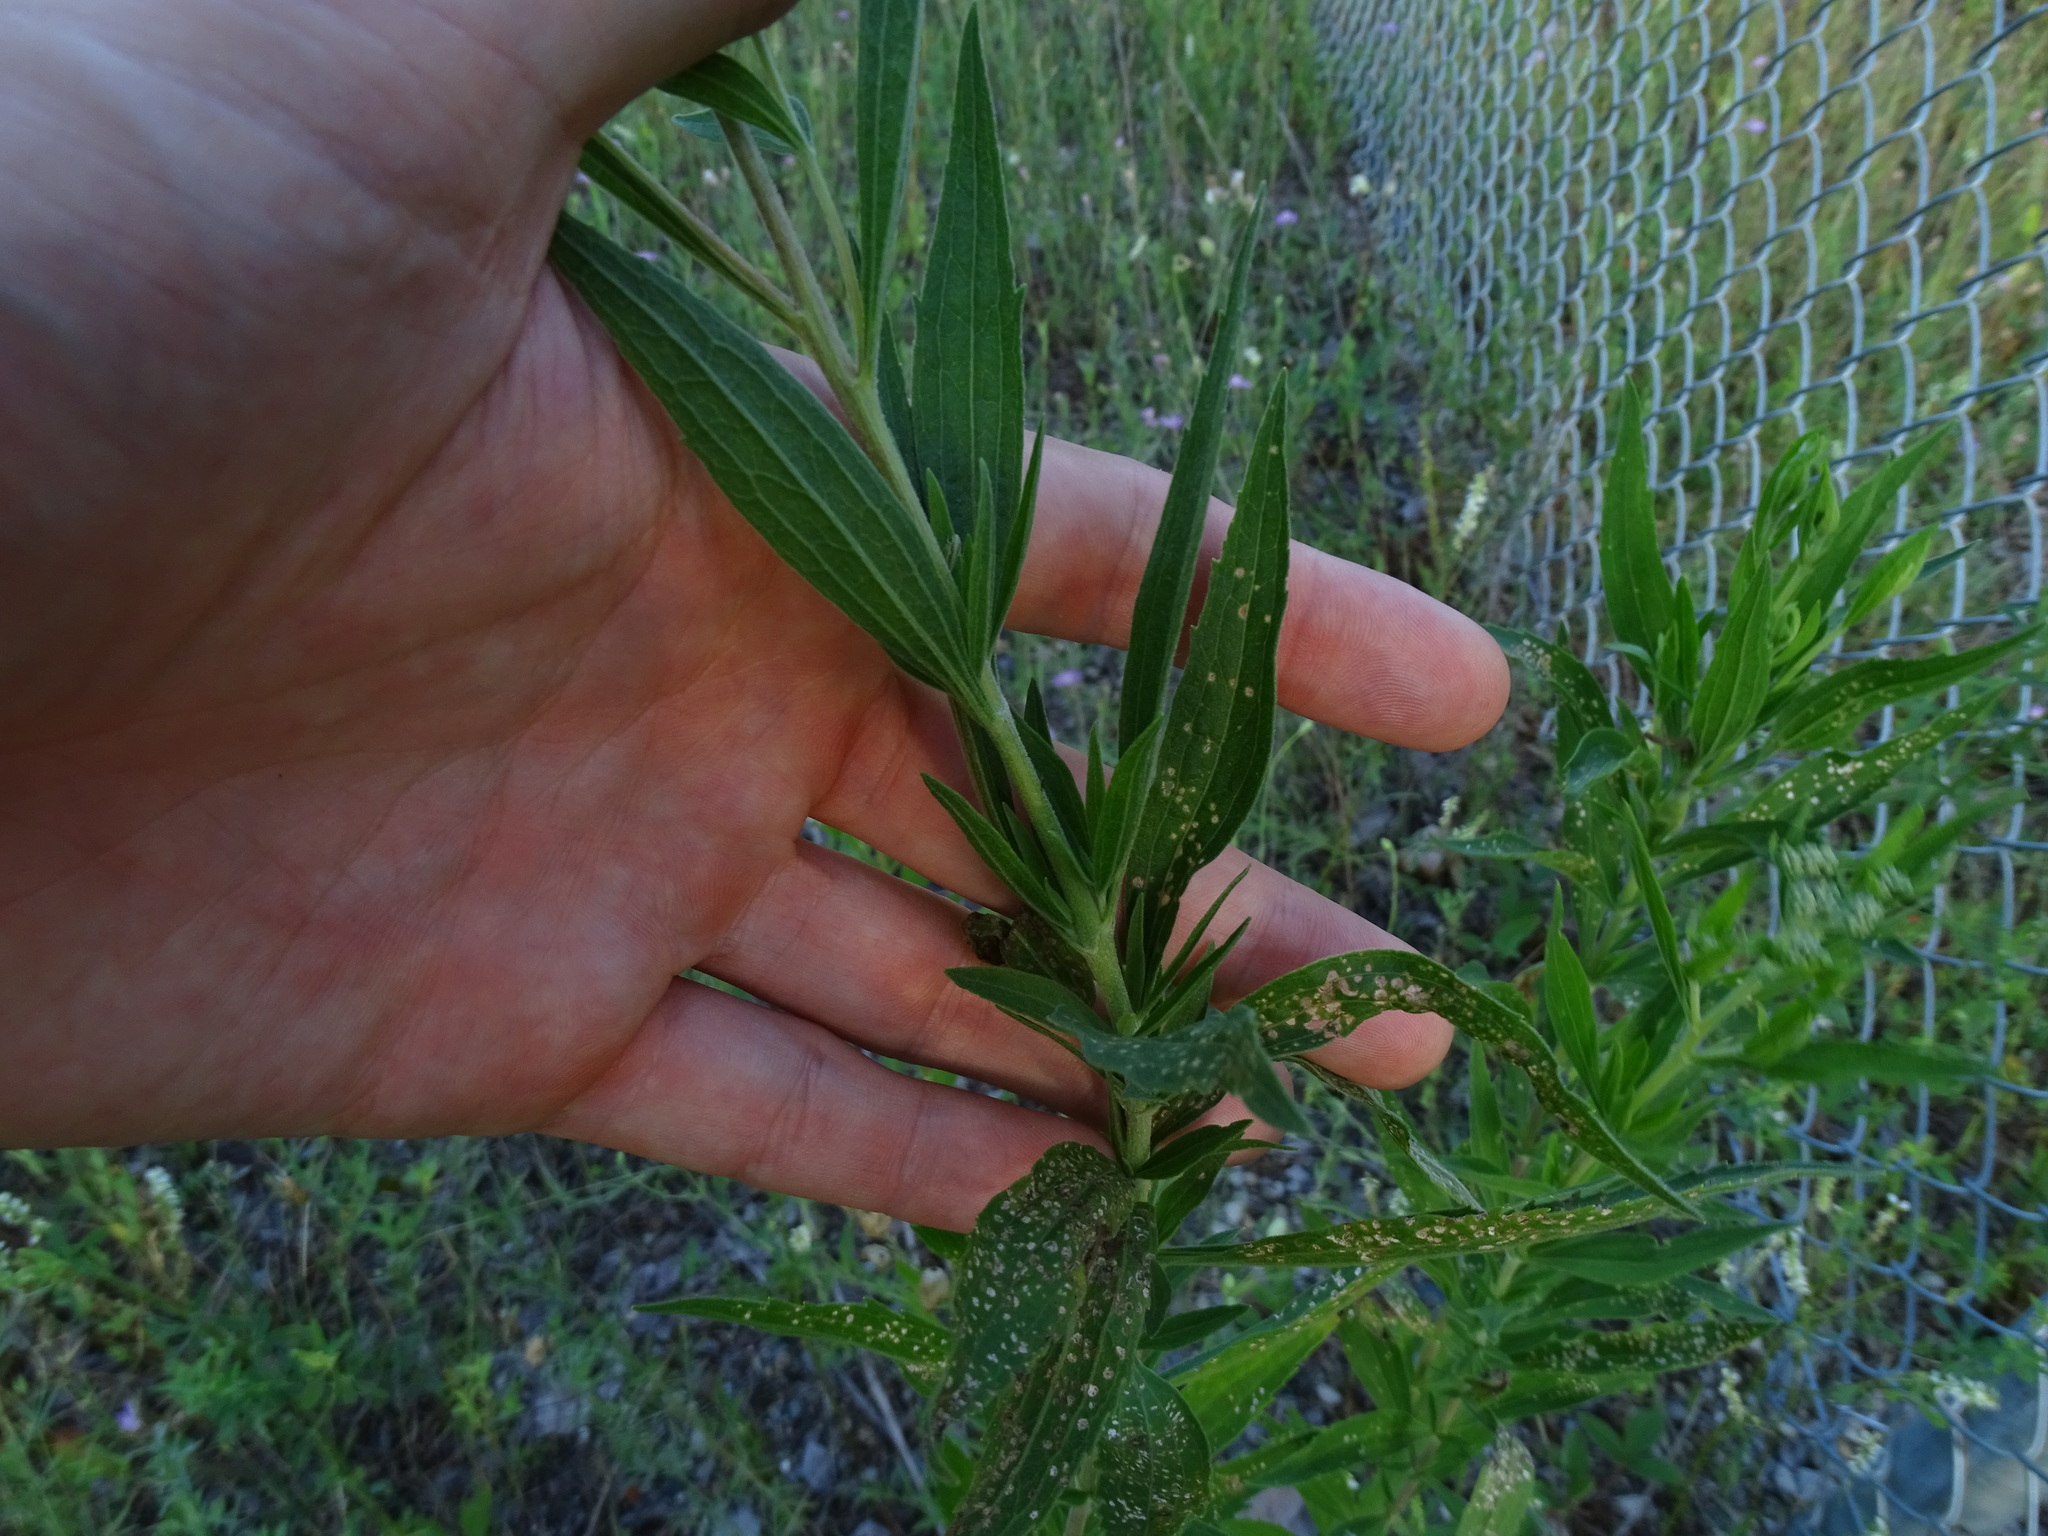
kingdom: Plantae
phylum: Tracheophyta
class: Magnoliopsida
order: Asterales
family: Asteraceae
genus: Eupatorium
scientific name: Eupatorium altissimum
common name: Tall thoroughwort
